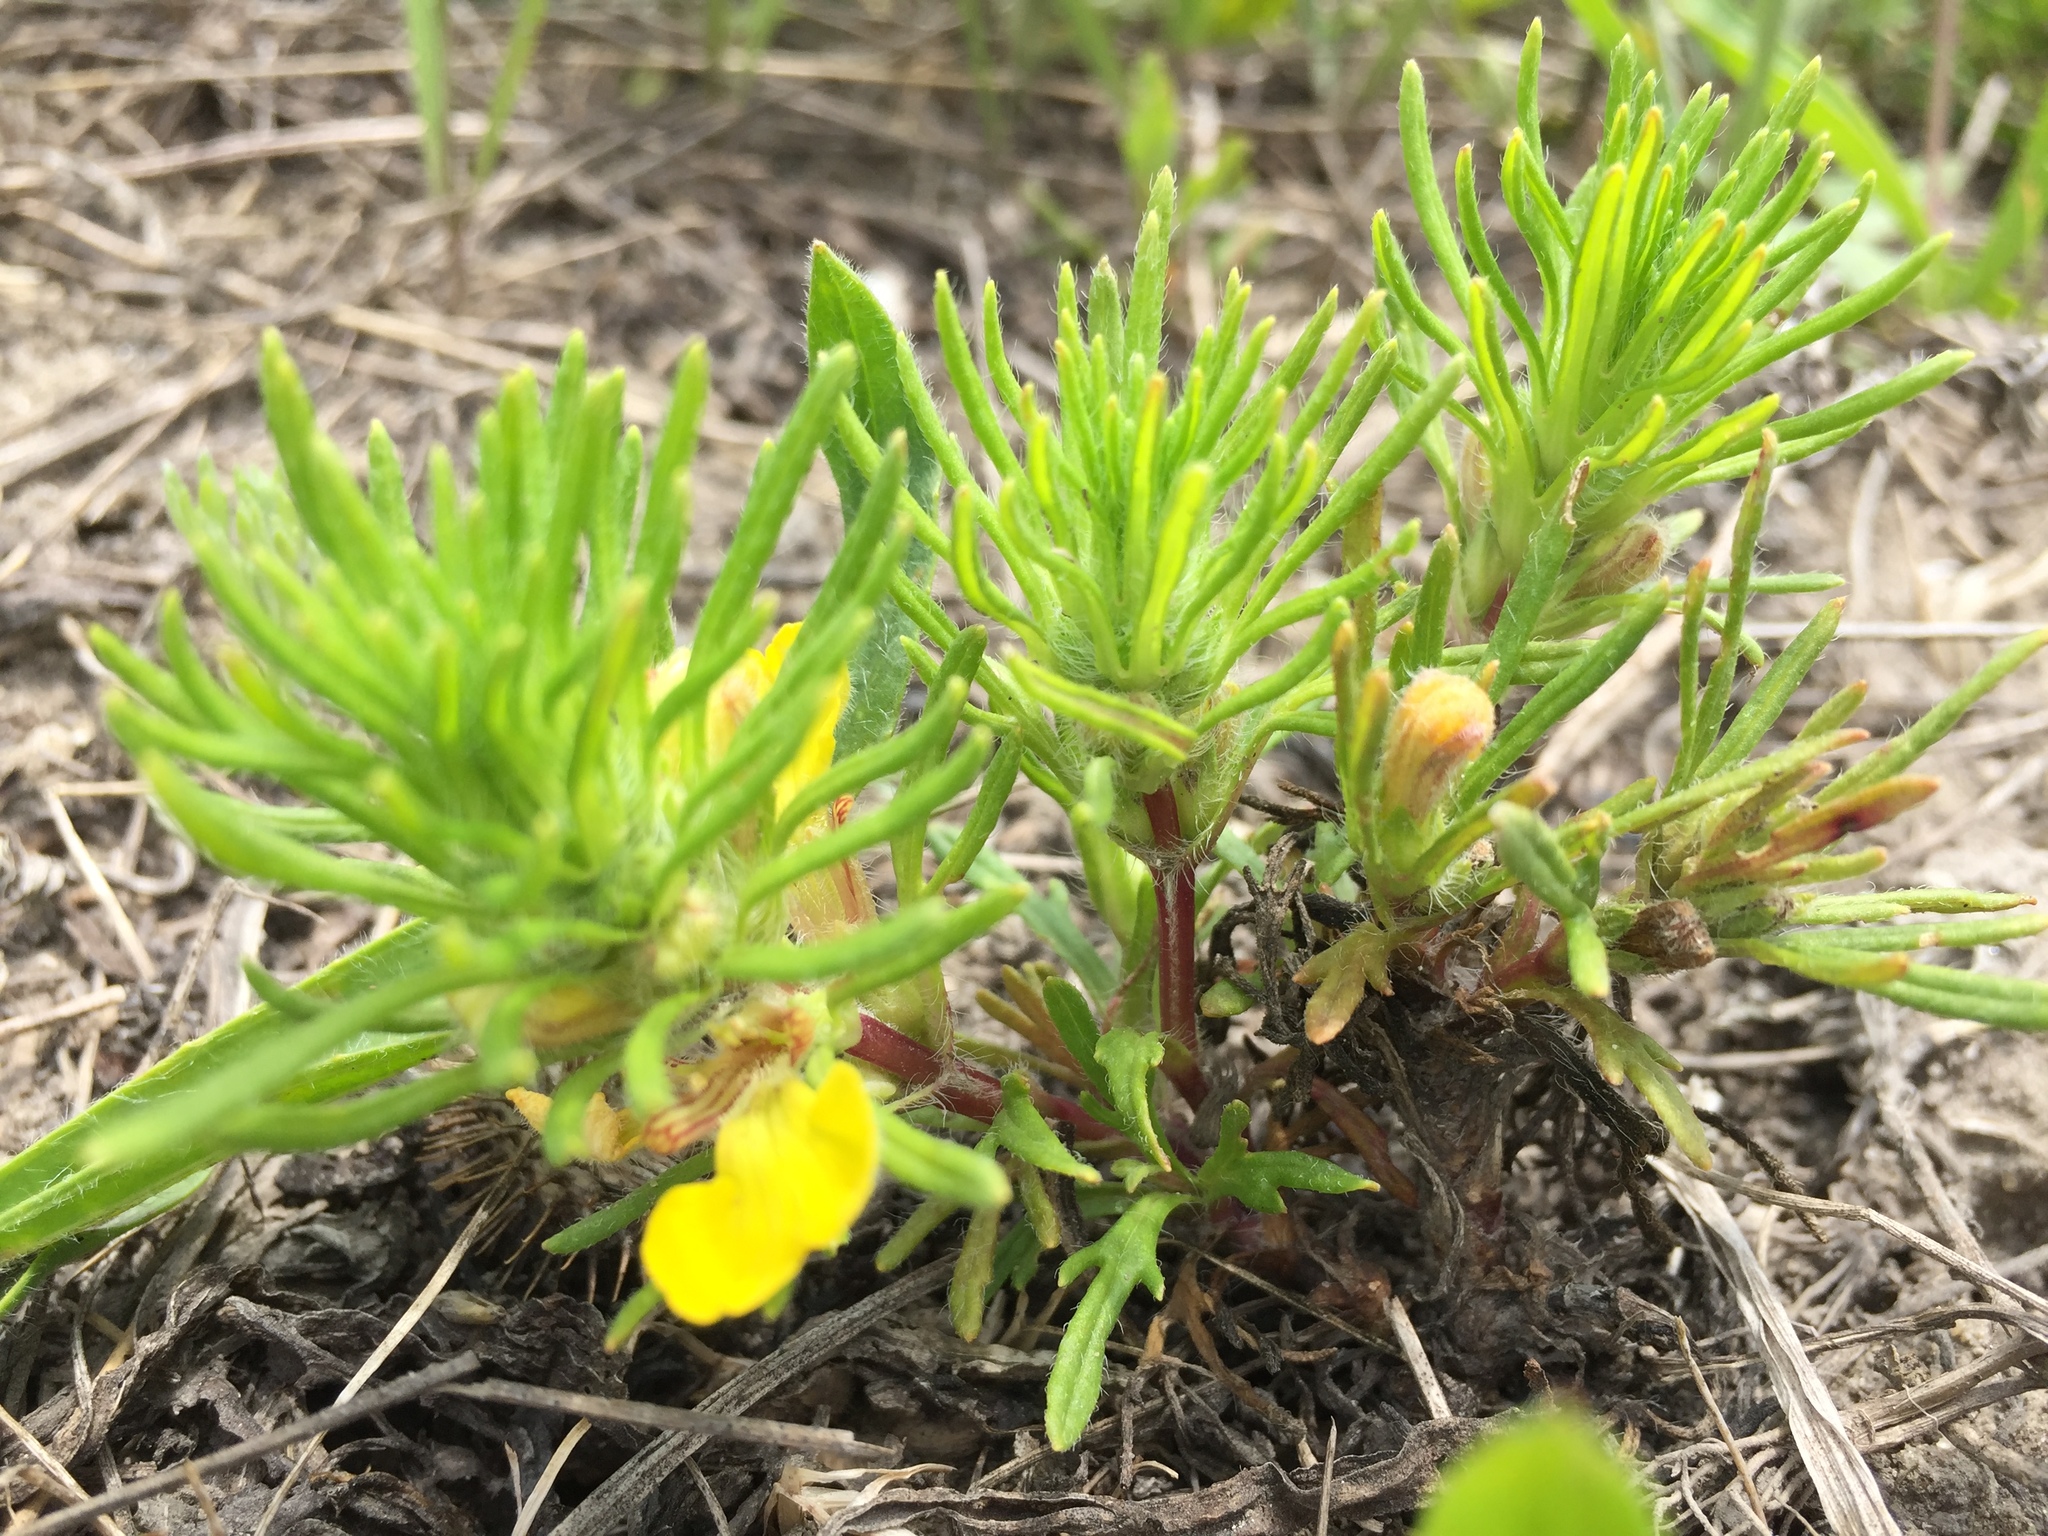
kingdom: Plantae
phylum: Tracheophyta
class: Magnoliopsida
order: Lamiales
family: Lamiaceae
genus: Ajuga
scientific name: Ajuga chamaepitys
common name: Ground-pine
